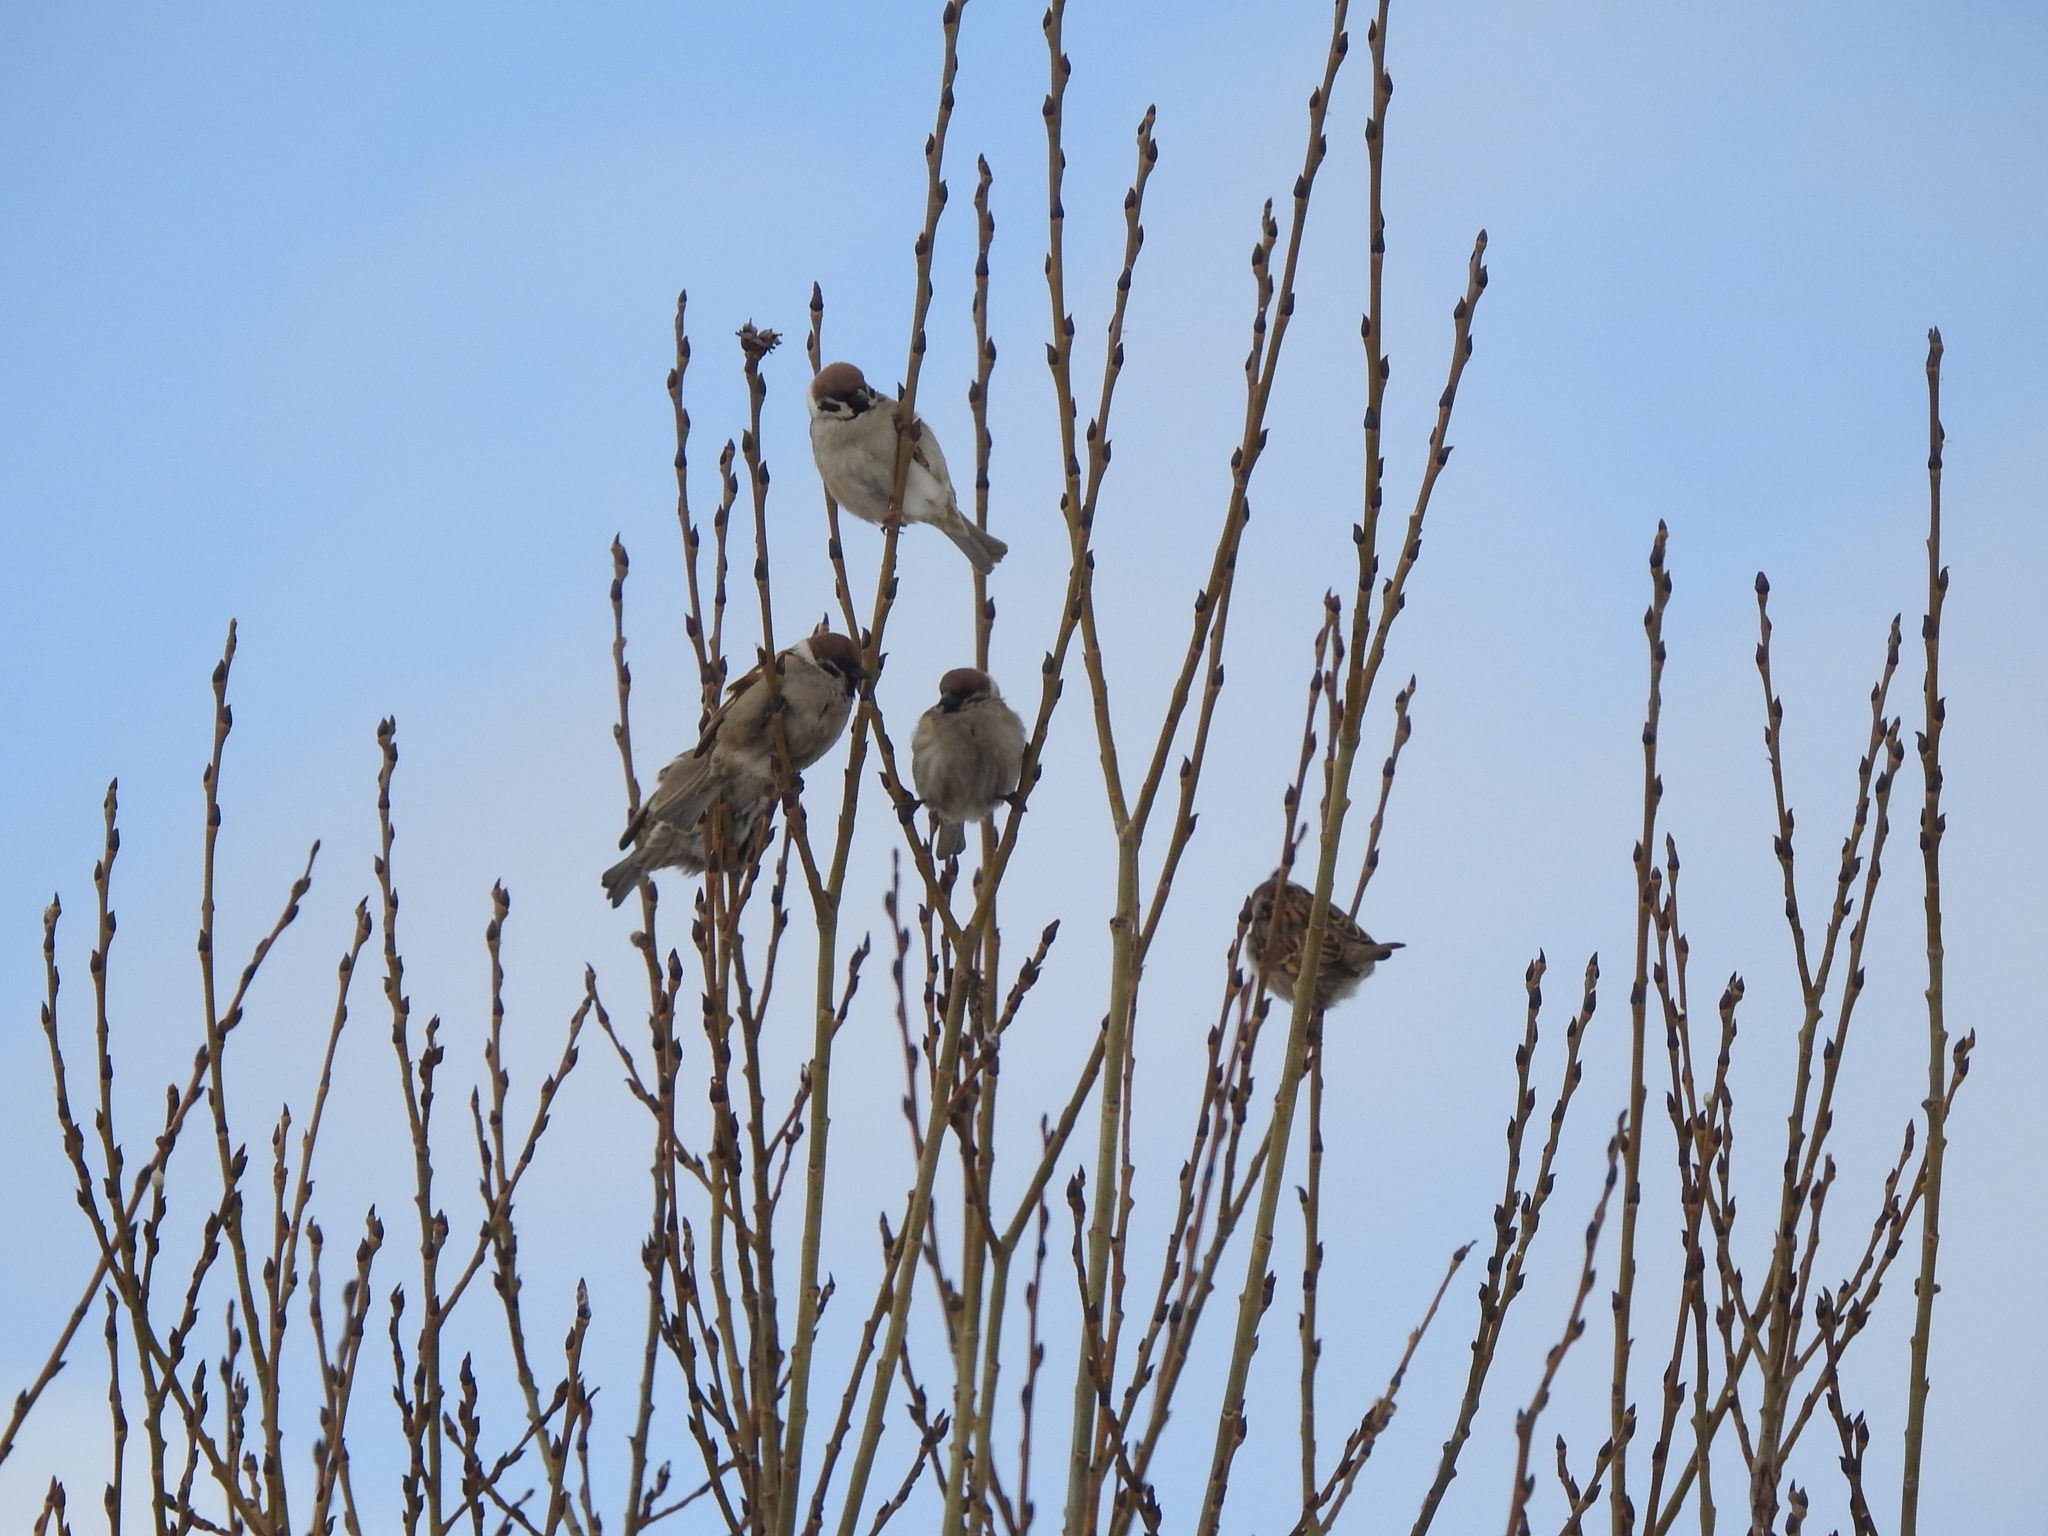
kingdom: Animalia
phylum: Chordata
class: Aves
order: Passeriformes
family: Passeridae
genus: Passer
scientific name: Passer montanus
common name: Eurasian tree sparrow
